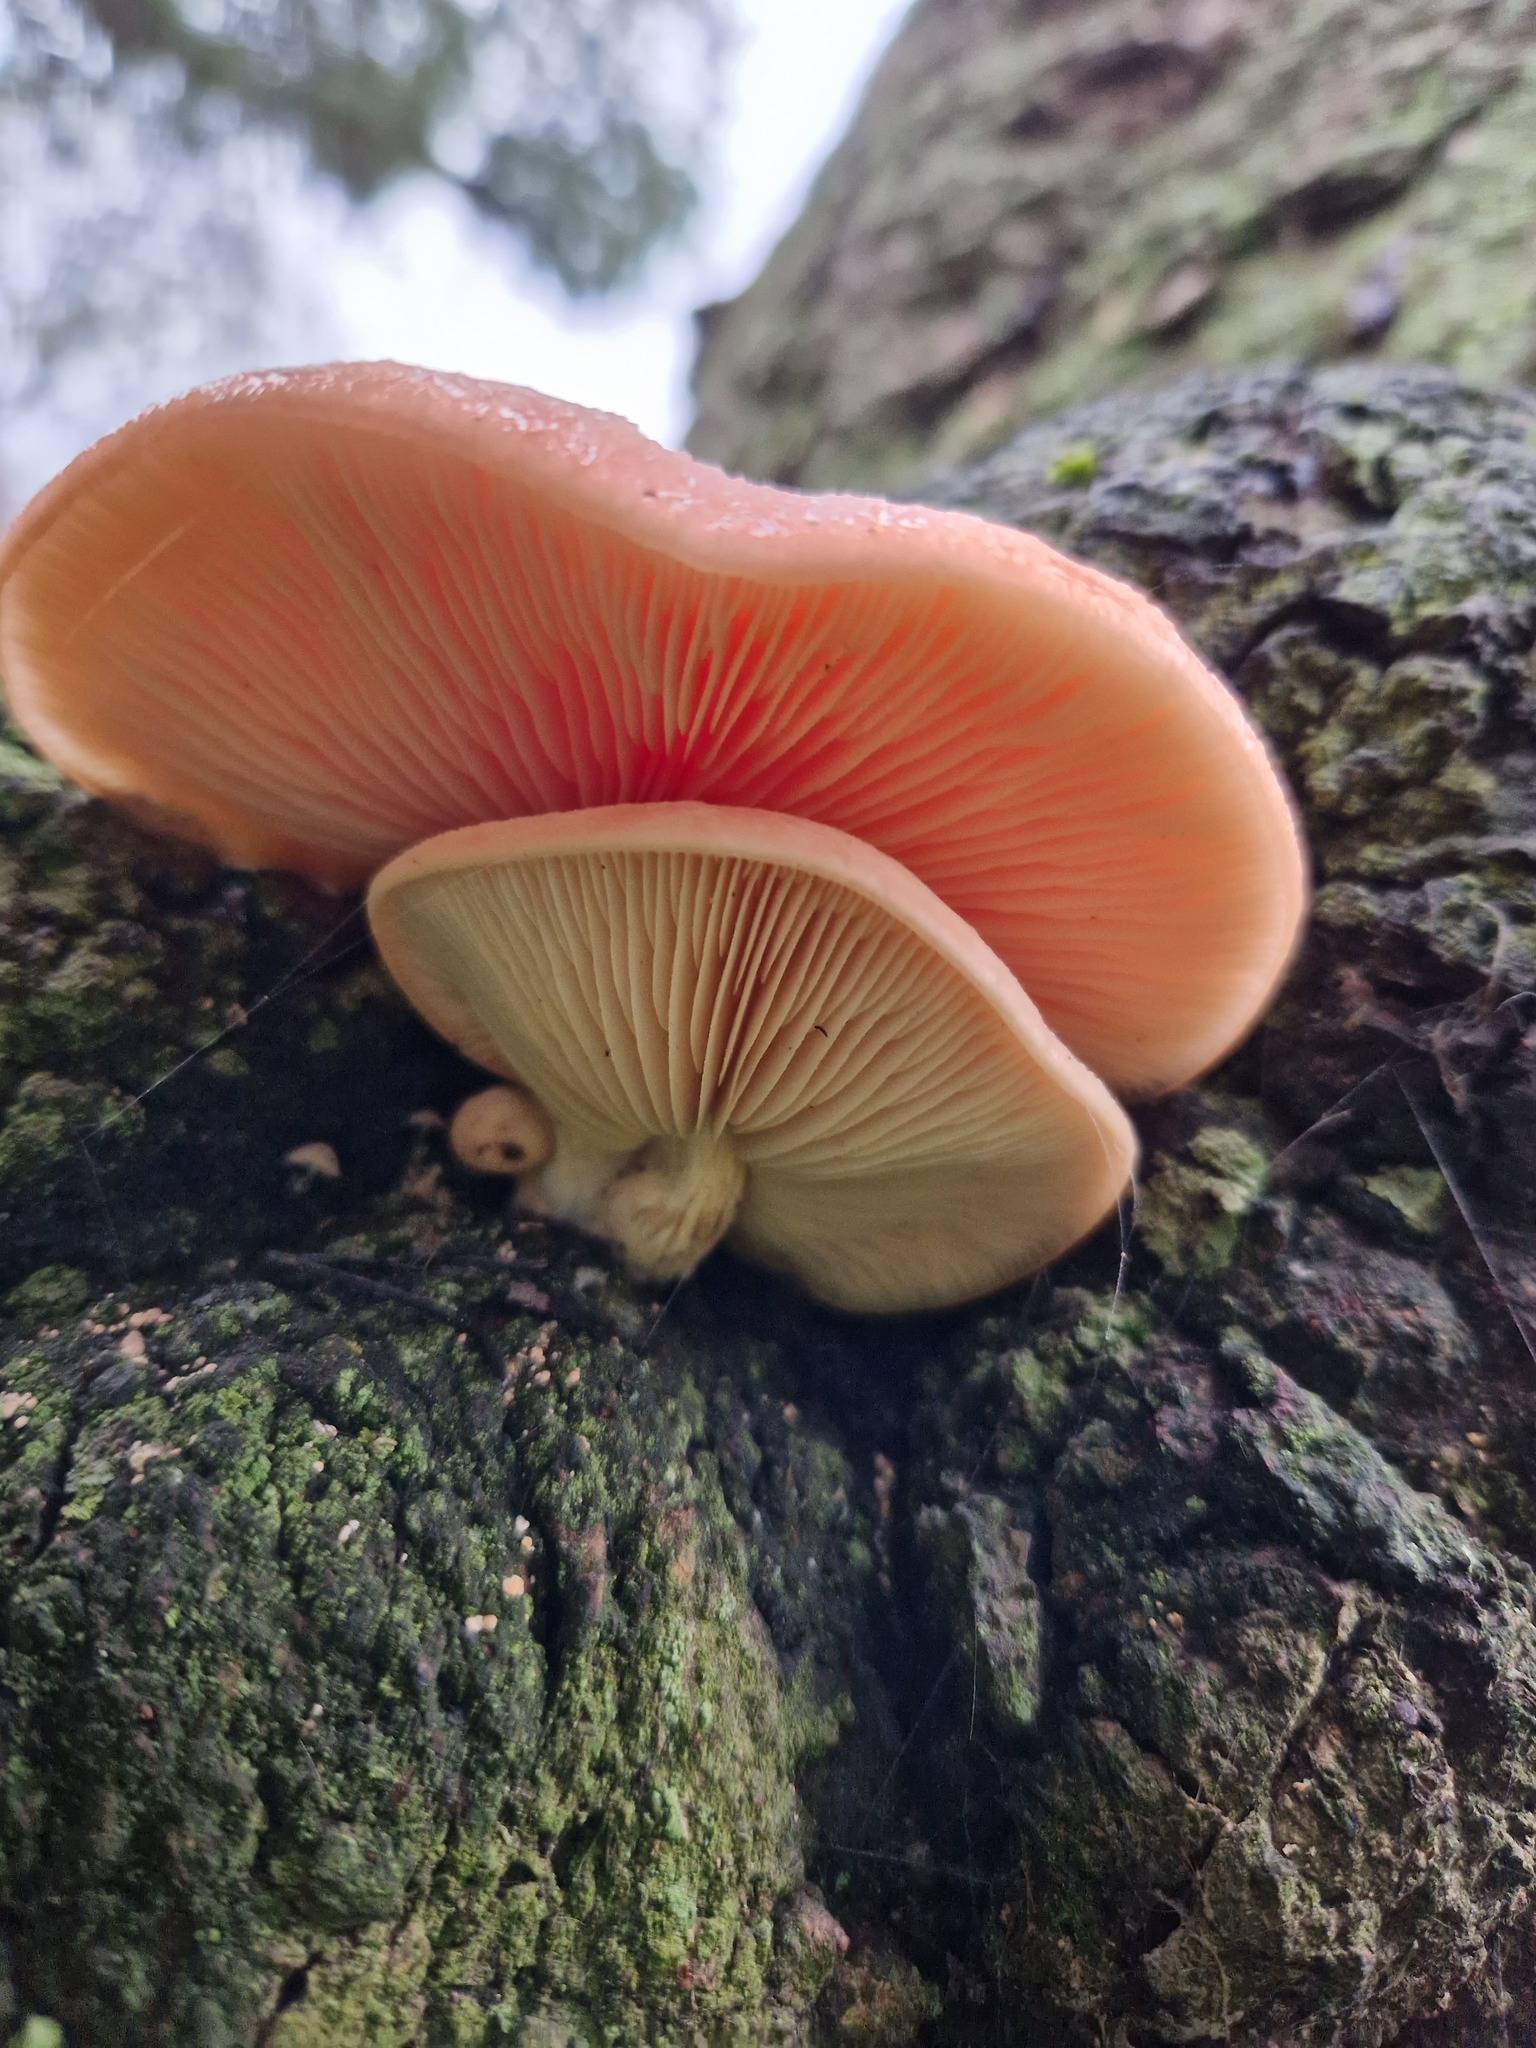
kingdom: Fungi
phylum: Basidiomycota
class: Agaricomycetes
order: Agaricales
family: Physalacriaceae
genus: Rhodotus
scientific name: Rhodotus palmatus
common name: Wrinkled peach
